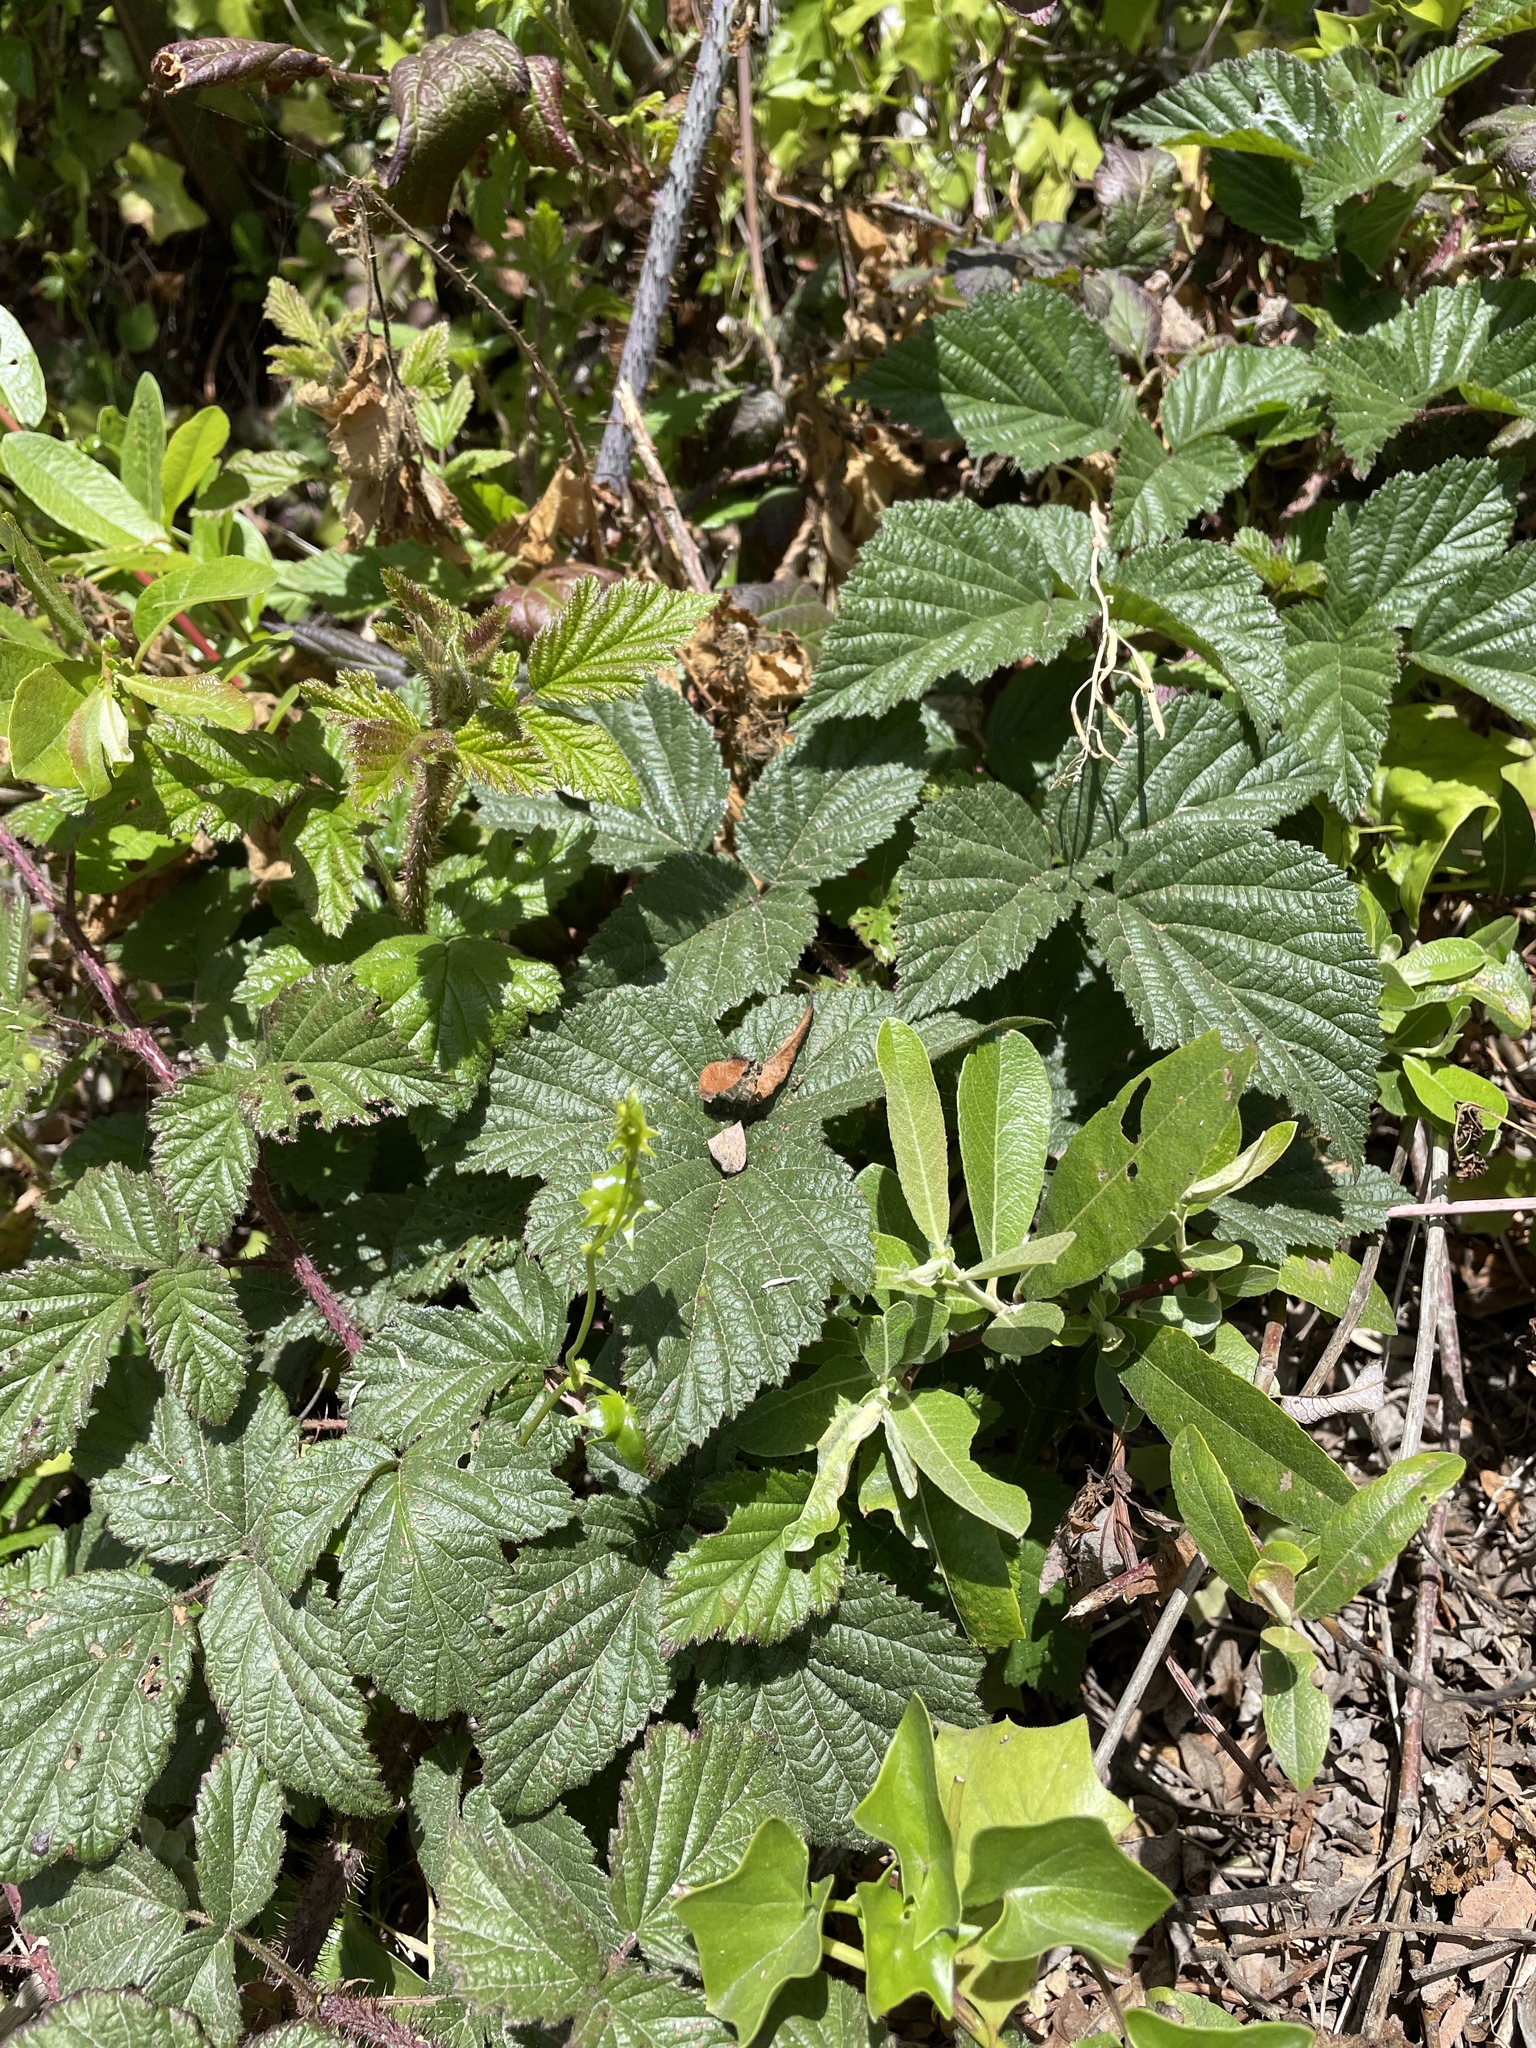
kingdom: Plantae
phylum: Tracheophyta
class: Magnoliopsida
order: Rosales
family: Rosaceae
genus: Rubus
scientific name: Rubus ursinus
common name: Pacific blackberry
